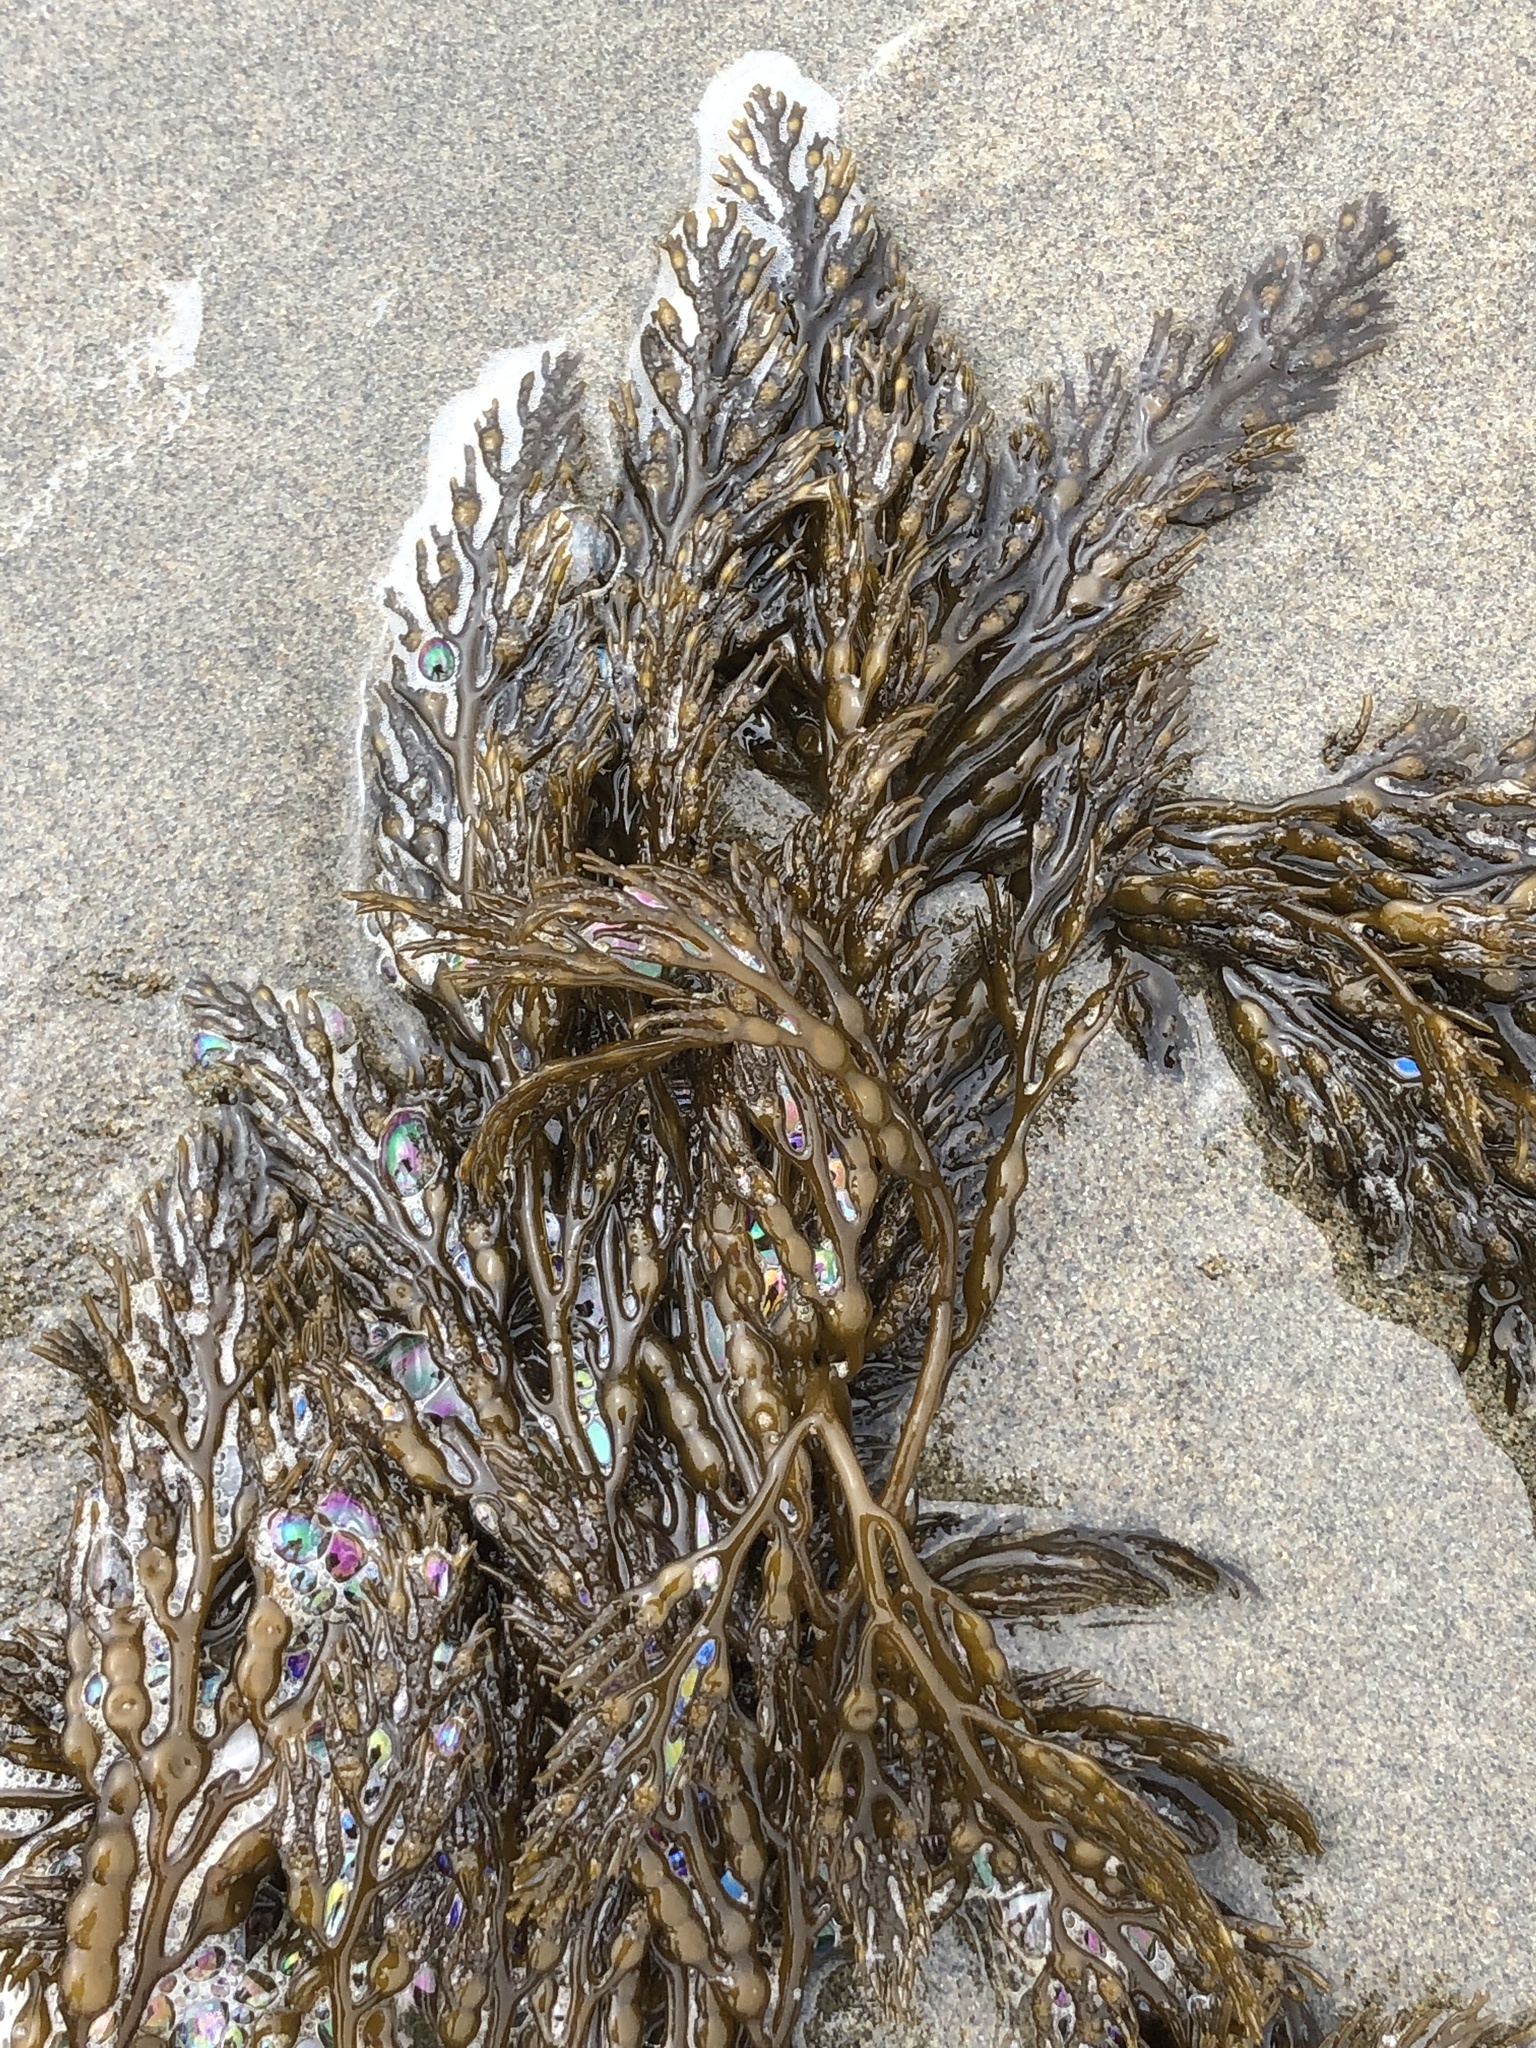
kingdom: Chromista
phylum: Ochrophyta
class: Phaeophyceae
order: Fucales
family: Sargassaceae
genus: Stephanocystis
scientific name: Stephanocystis
